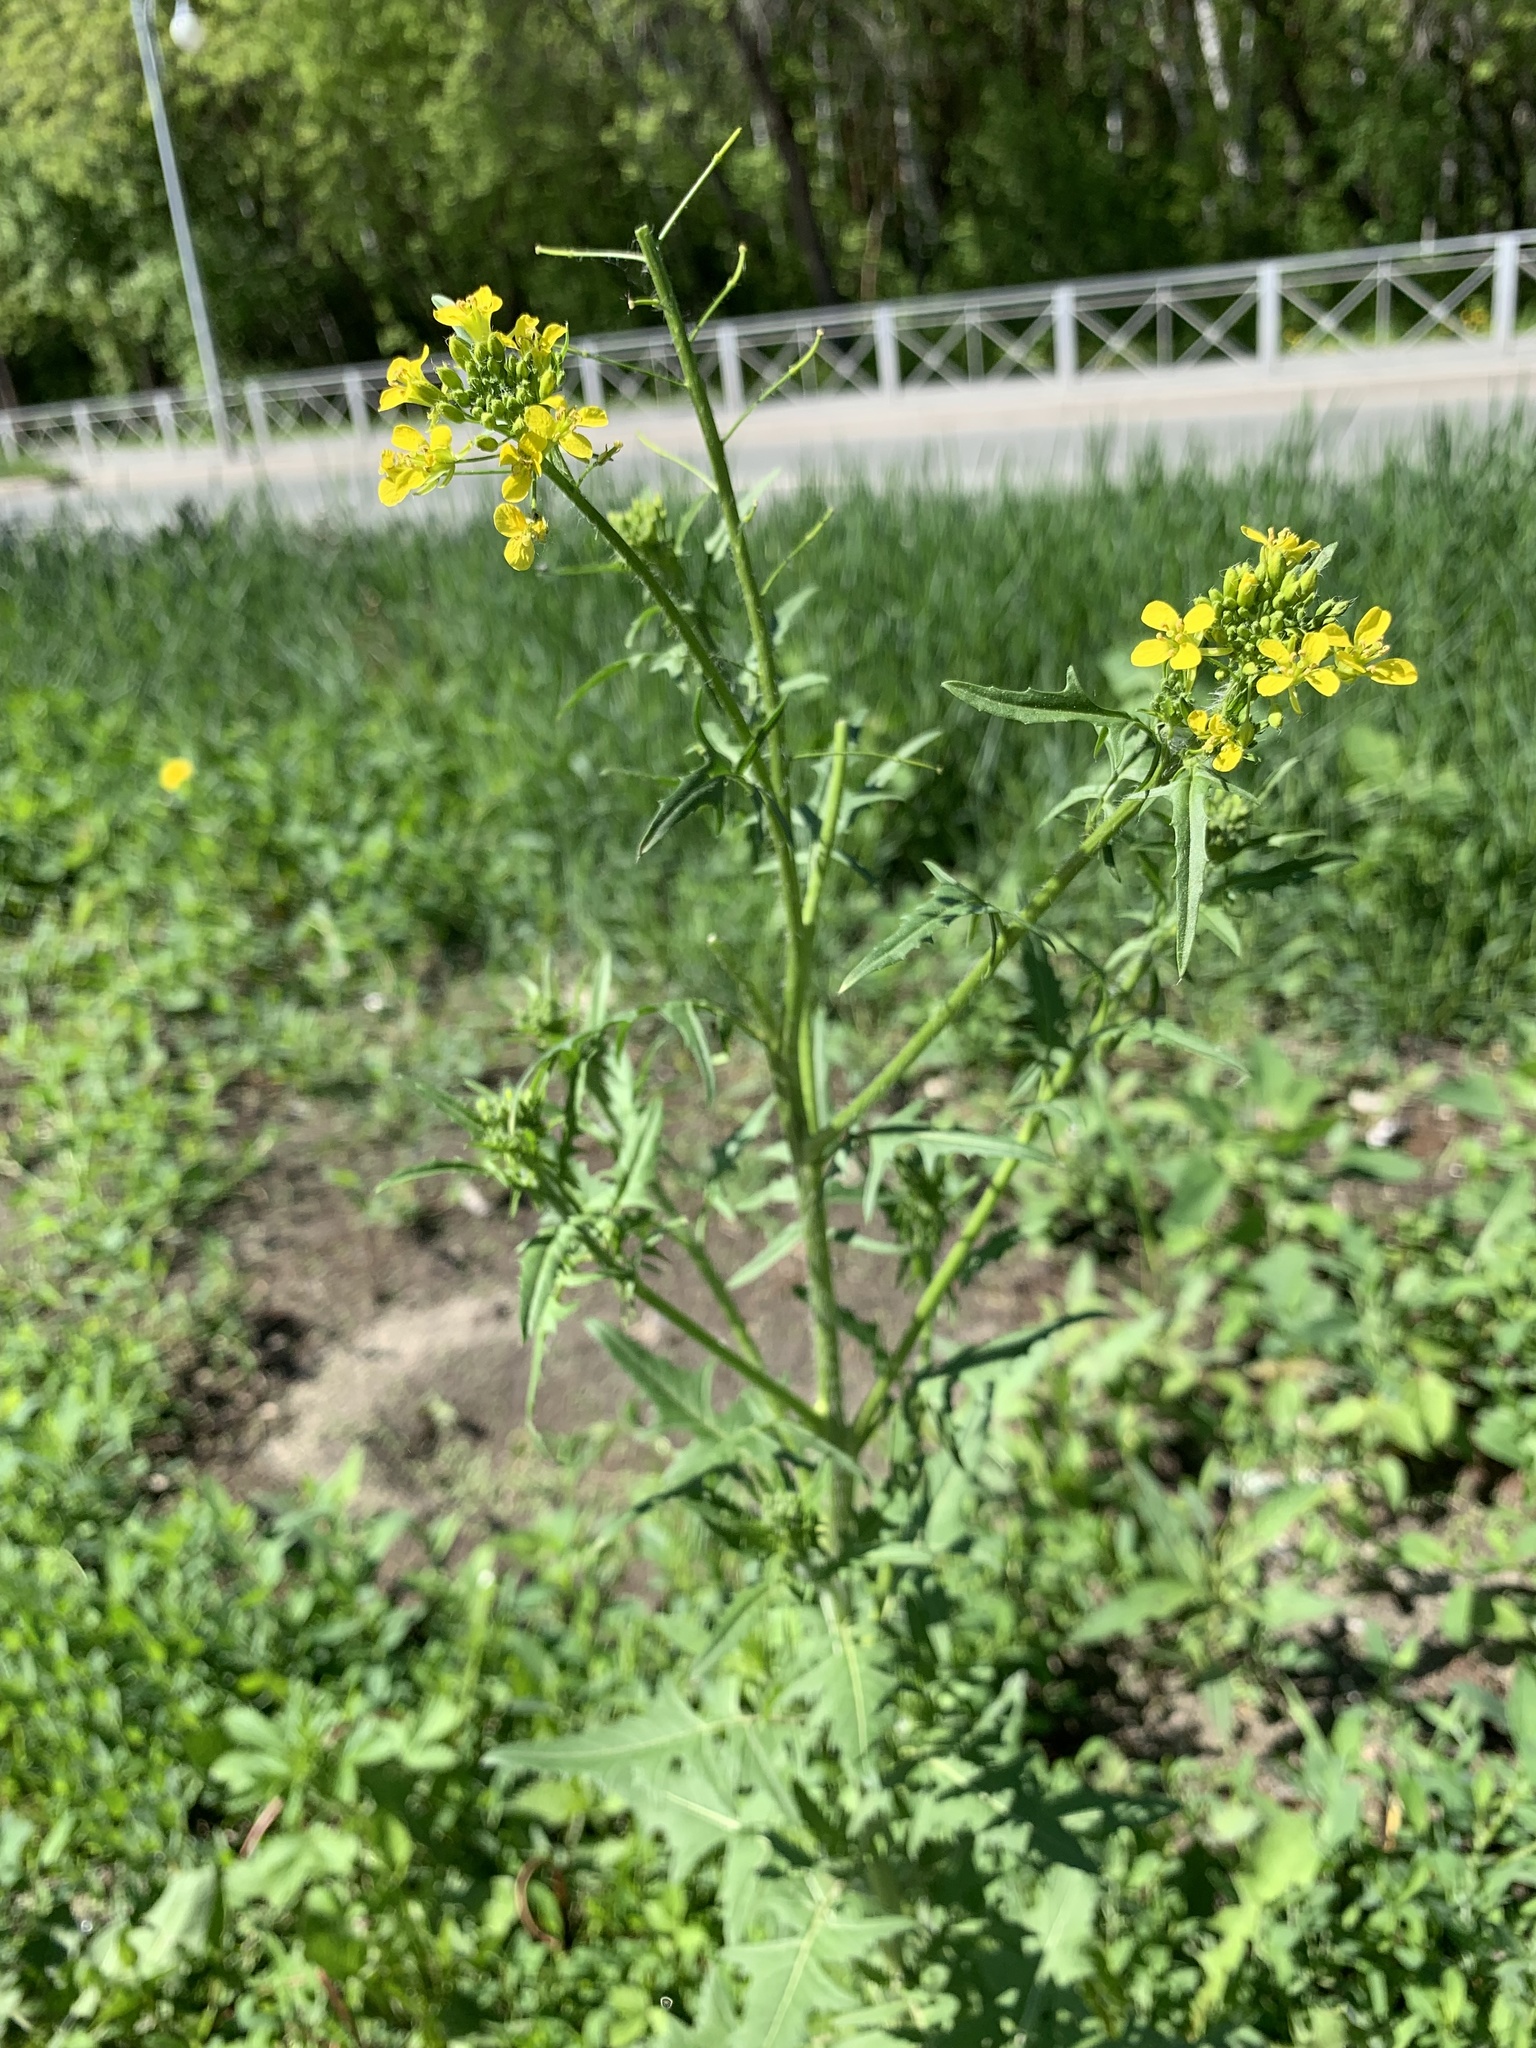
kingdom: Plantae
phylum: Tracheophyta
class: Magnoliopsida
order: Brassicales
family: Brassicaceae
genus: Sisymbrium
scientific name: Sisymbrium loeselii
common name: False london-rocket
